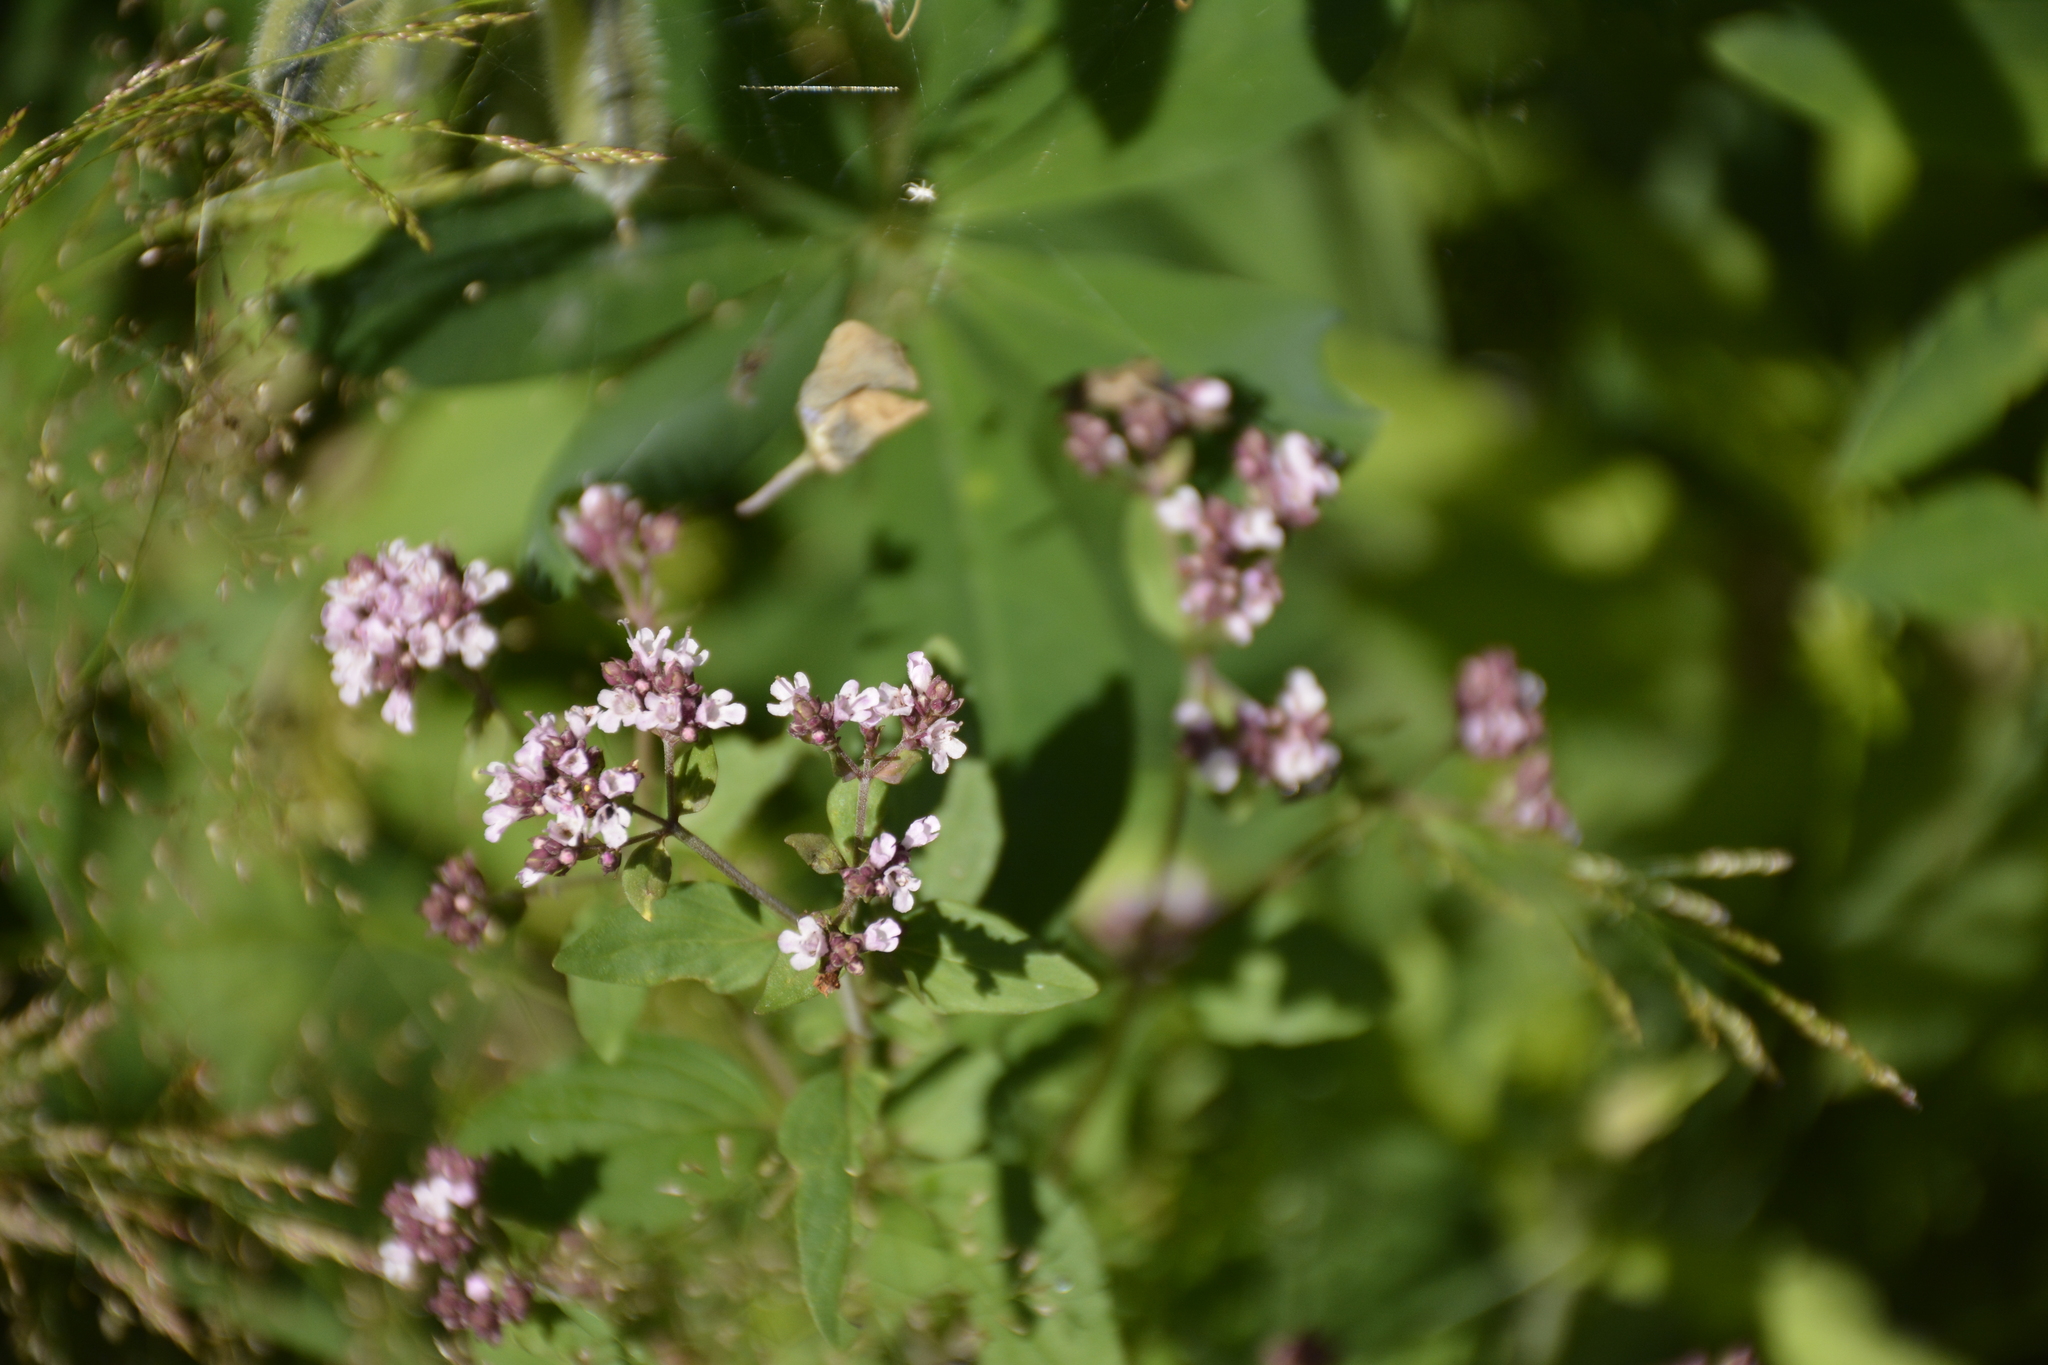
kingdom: Plantae
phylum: Tracheophyta
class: Magnoliopsida
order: Lamiales
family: Lamiaceae
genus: Origanum
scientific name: Origanum vulgare
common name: Wild marjoram
